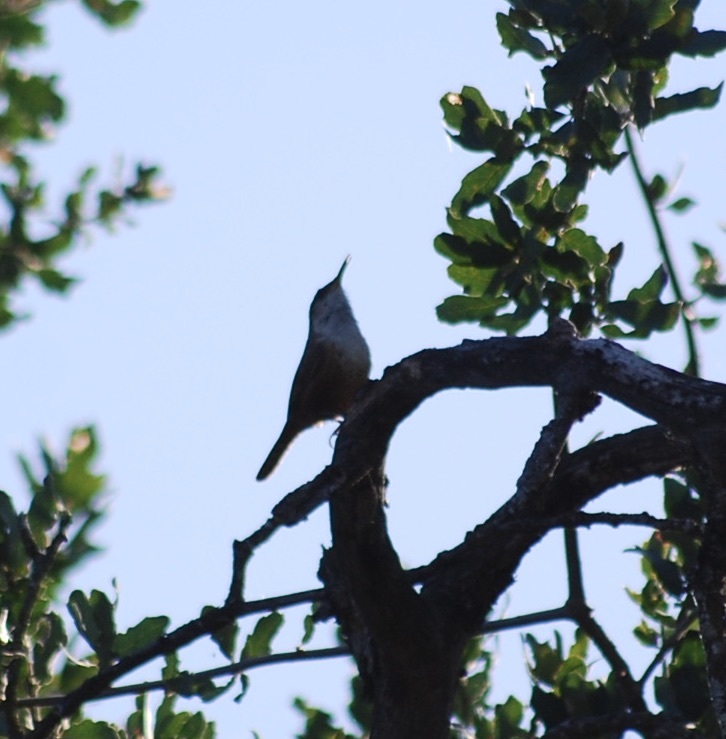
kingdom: Animalia
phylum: Chordata
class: Aves
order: Passeriformes
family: Troglodytidae
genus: Catherpes
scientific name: Catherpes mexicanus
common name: Canyon wren
